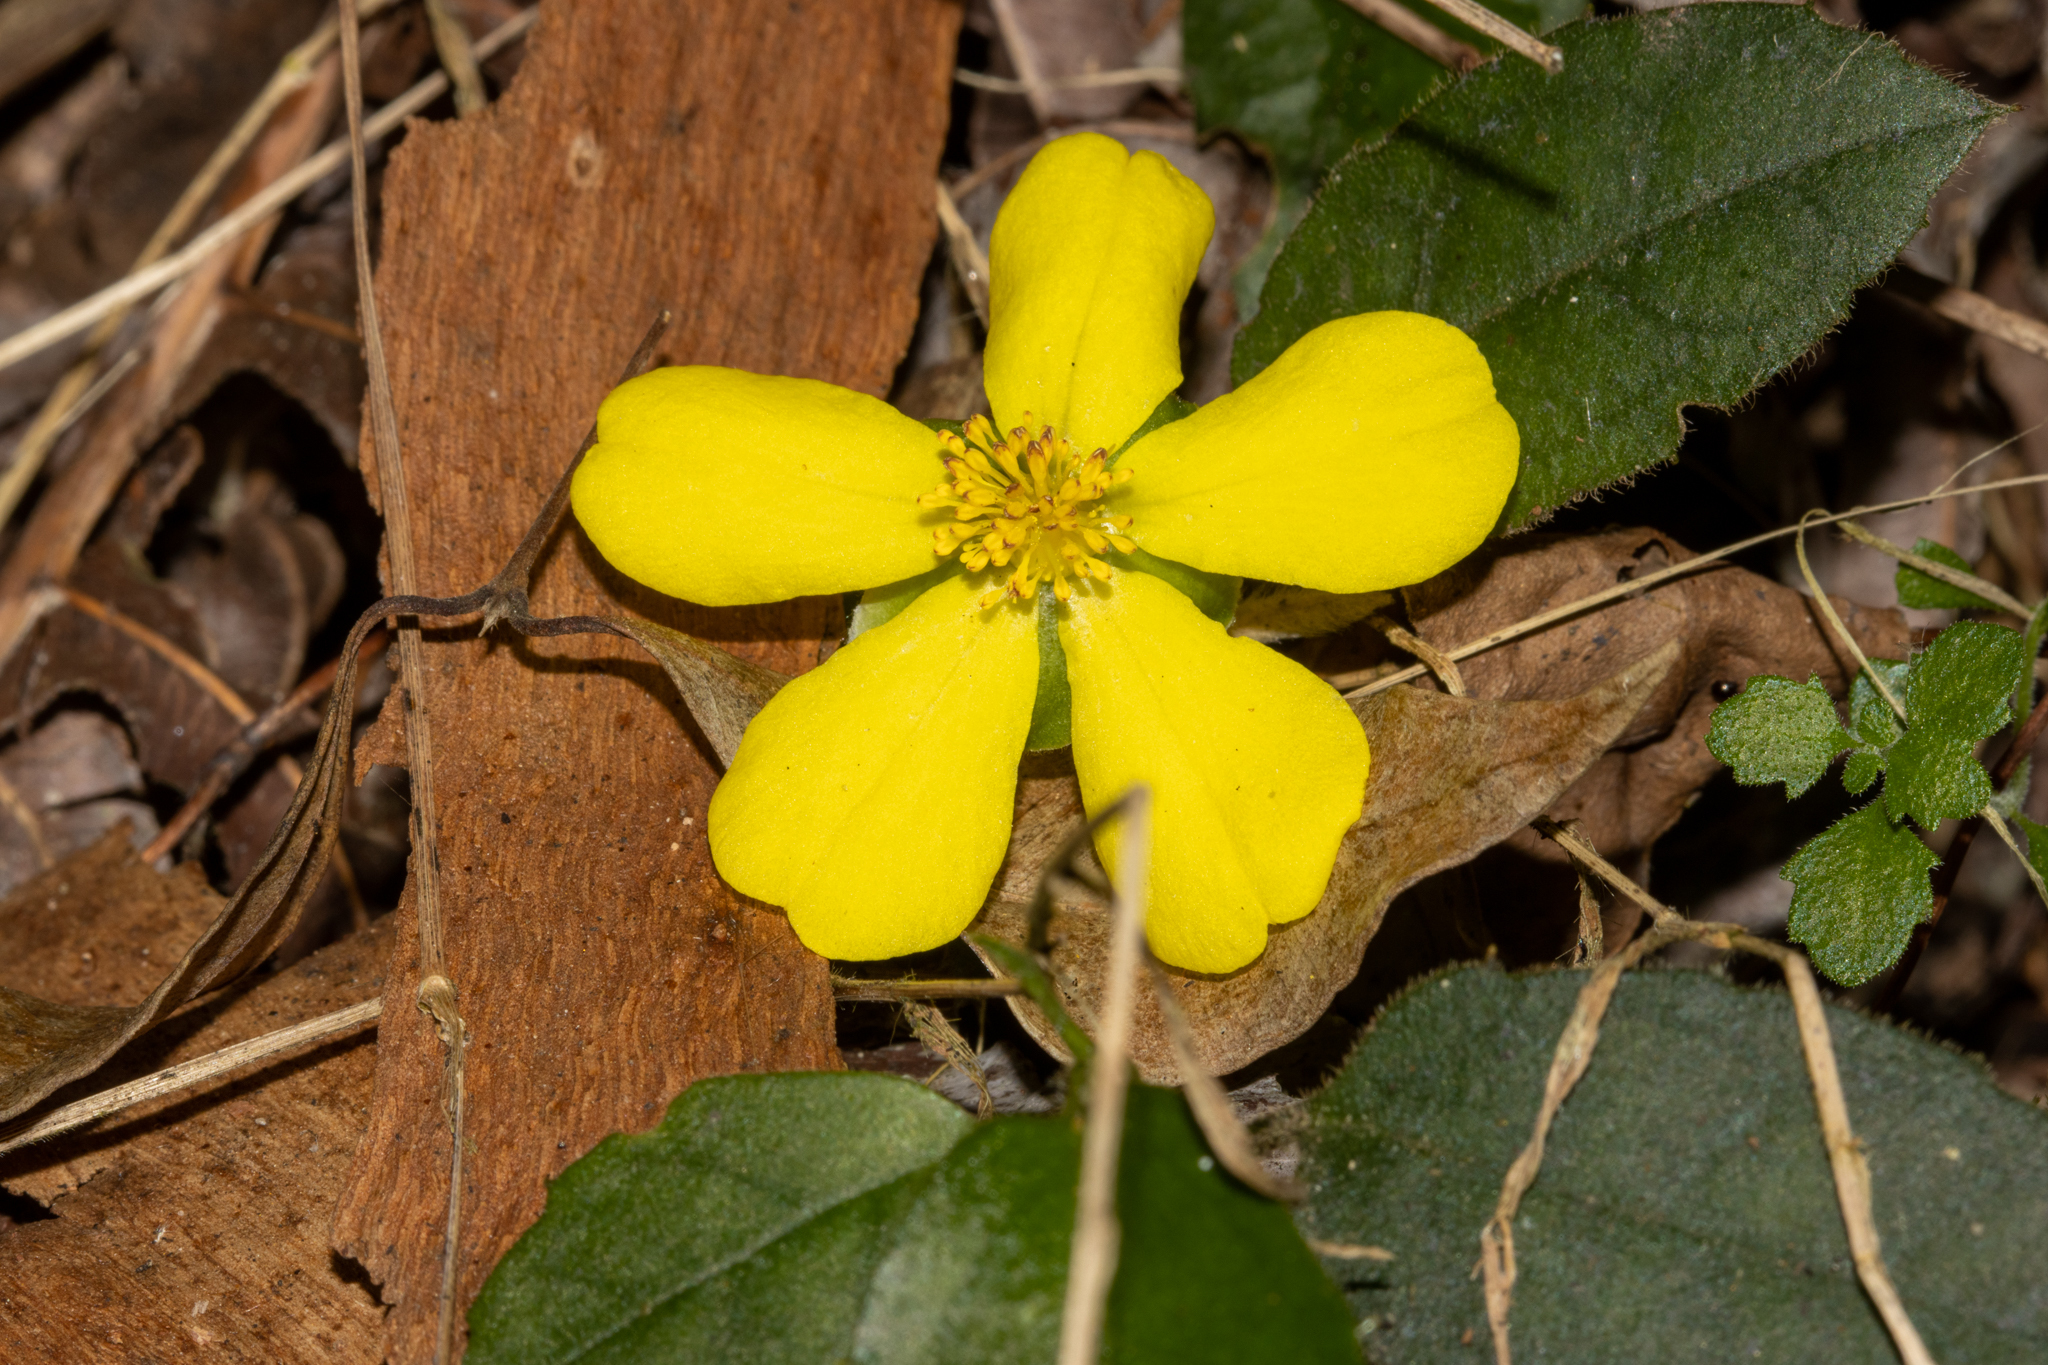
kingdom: Plantae
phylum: Tracheophyta
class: Magnoliopsida
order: Dilleniales
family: Dilleniaceae
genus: Hibbertia
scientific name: Hibbertia dentata
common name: Trailing guinea-flower
